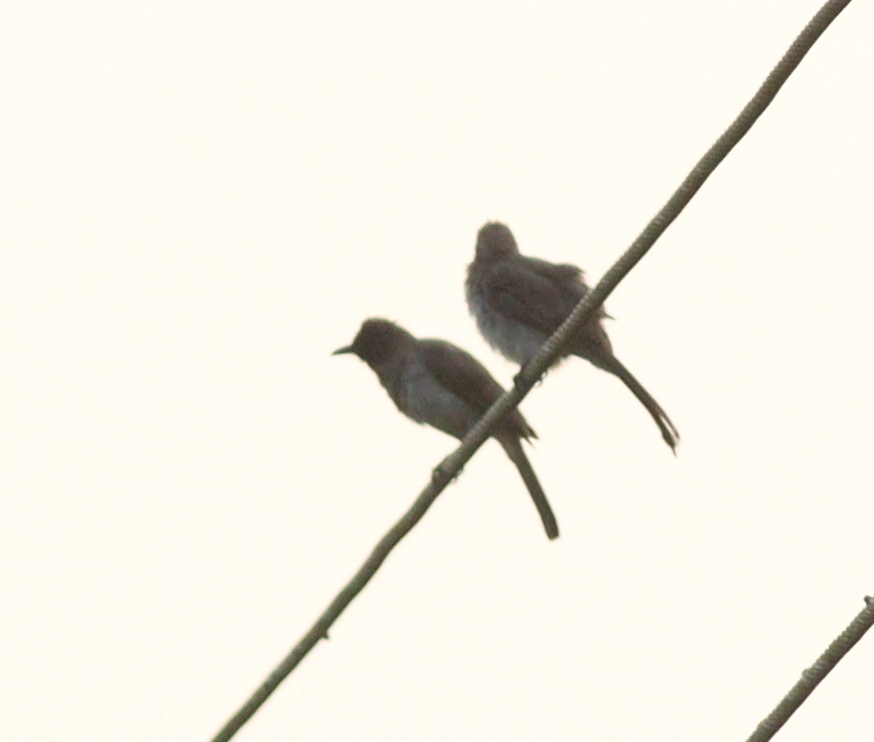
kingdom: Animalia
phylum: Chordata
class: Aves
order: Passeriformes
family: Pycnonotidae
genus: Pycnonotus
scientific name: Pycnonotus barbatus
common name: Common bulbul
